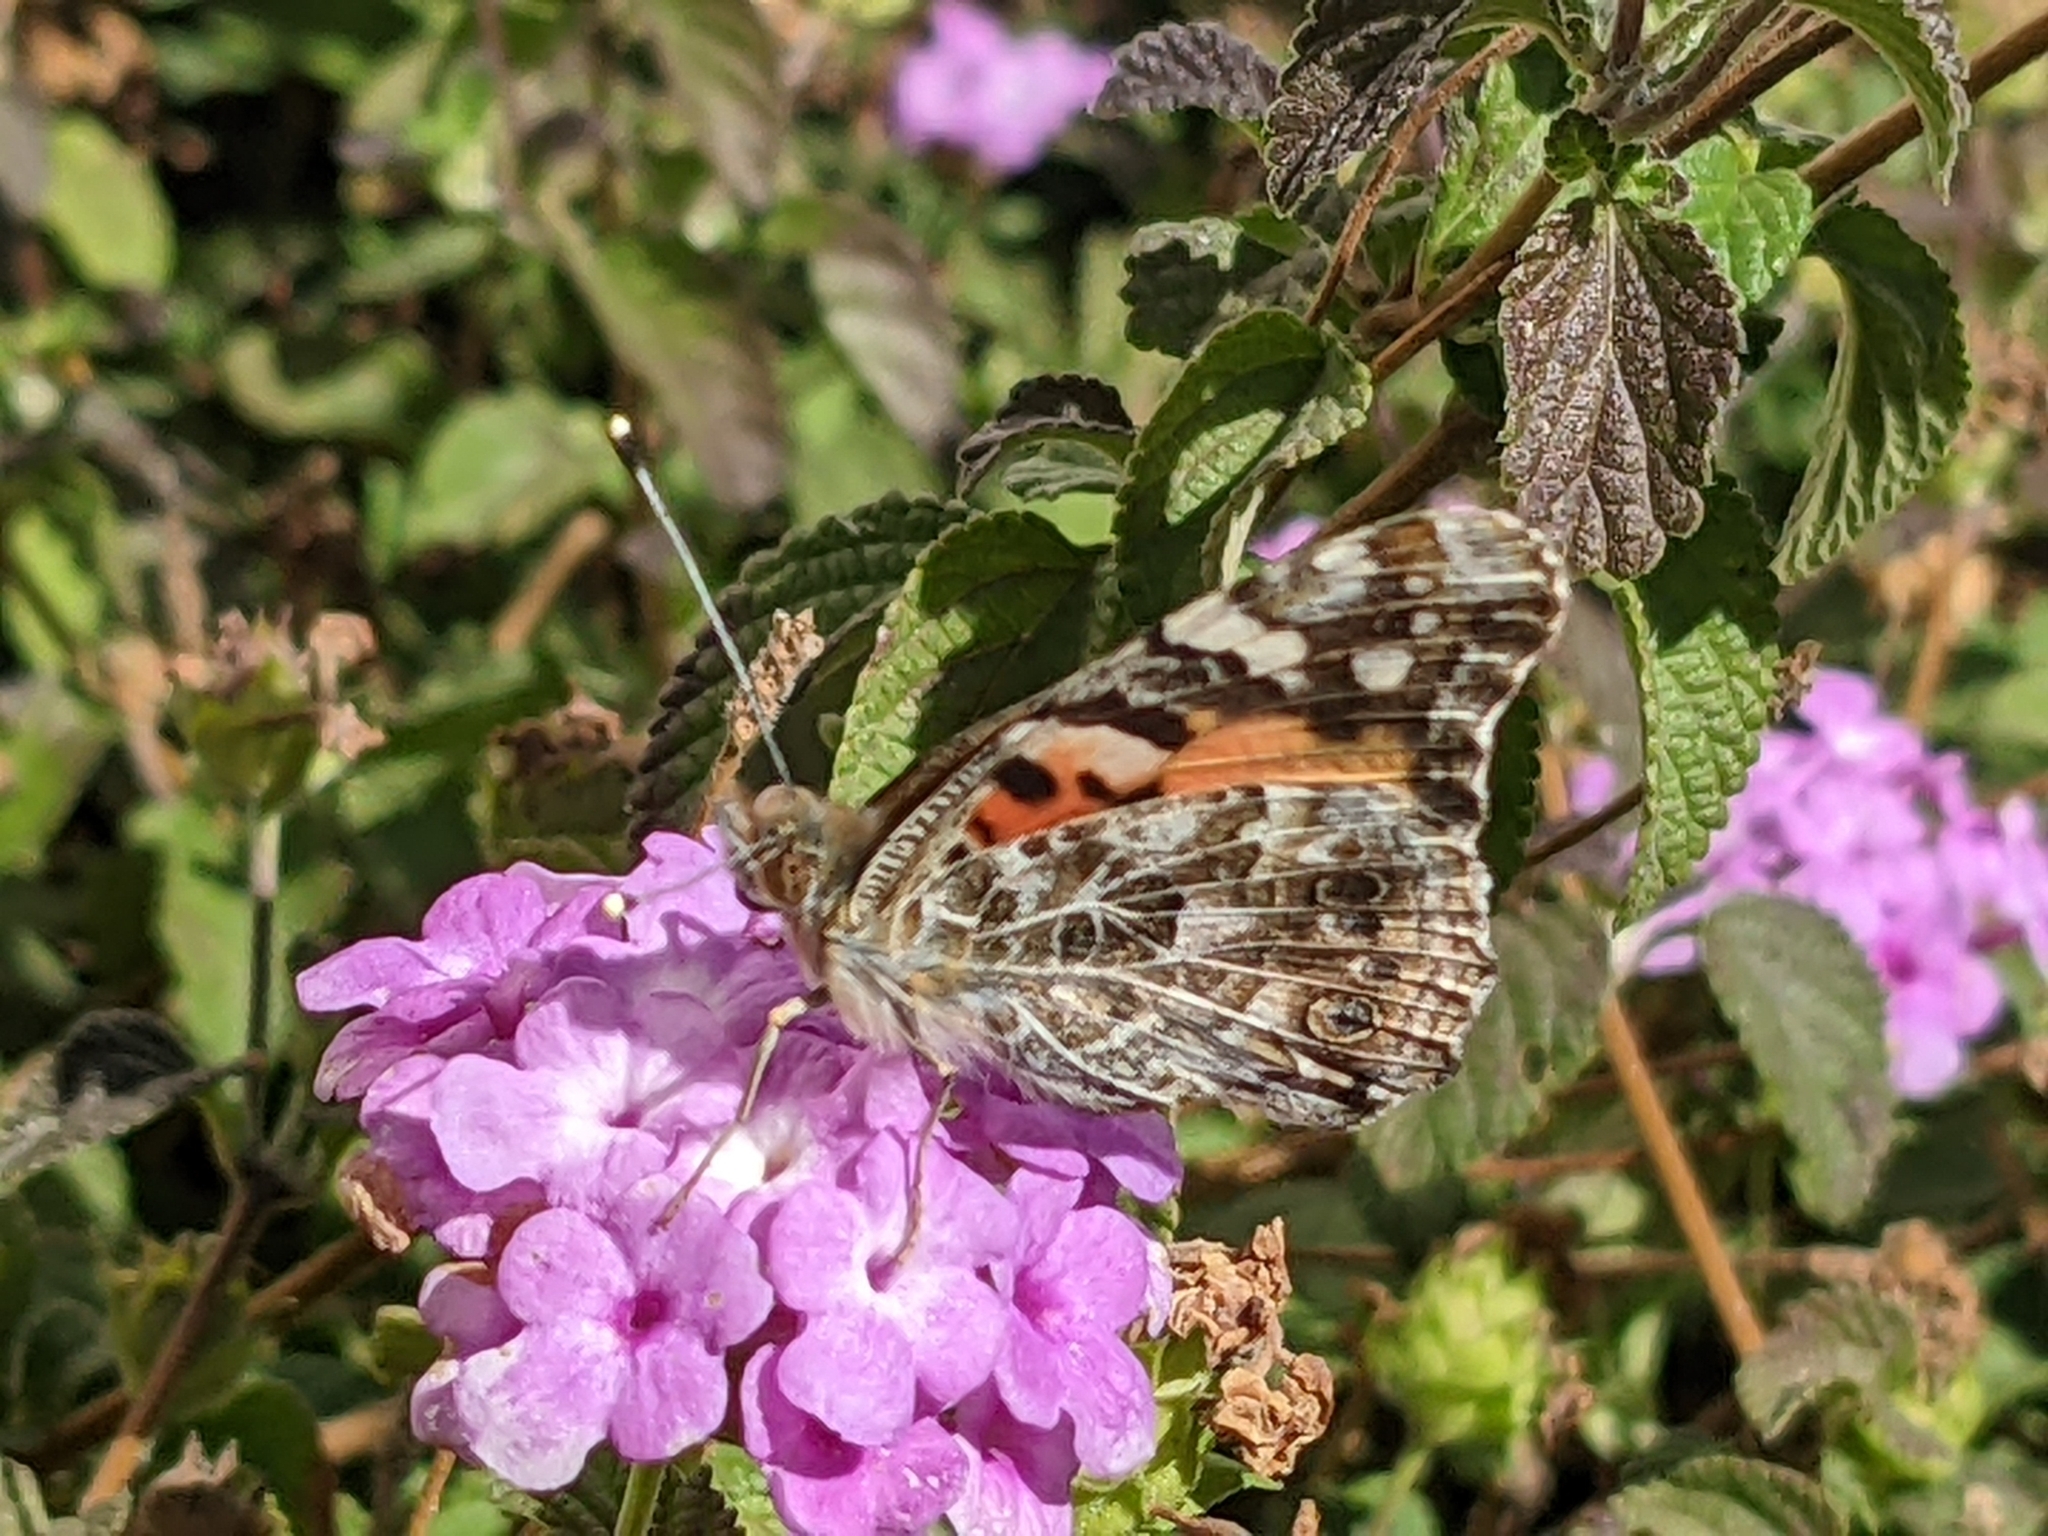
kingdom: Animalia
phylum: Arthropoda
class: Insecta
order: Lepidoptera
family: Nymphalidae
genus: Vanessa
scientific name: Vanessa cardui
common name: Painted lady
